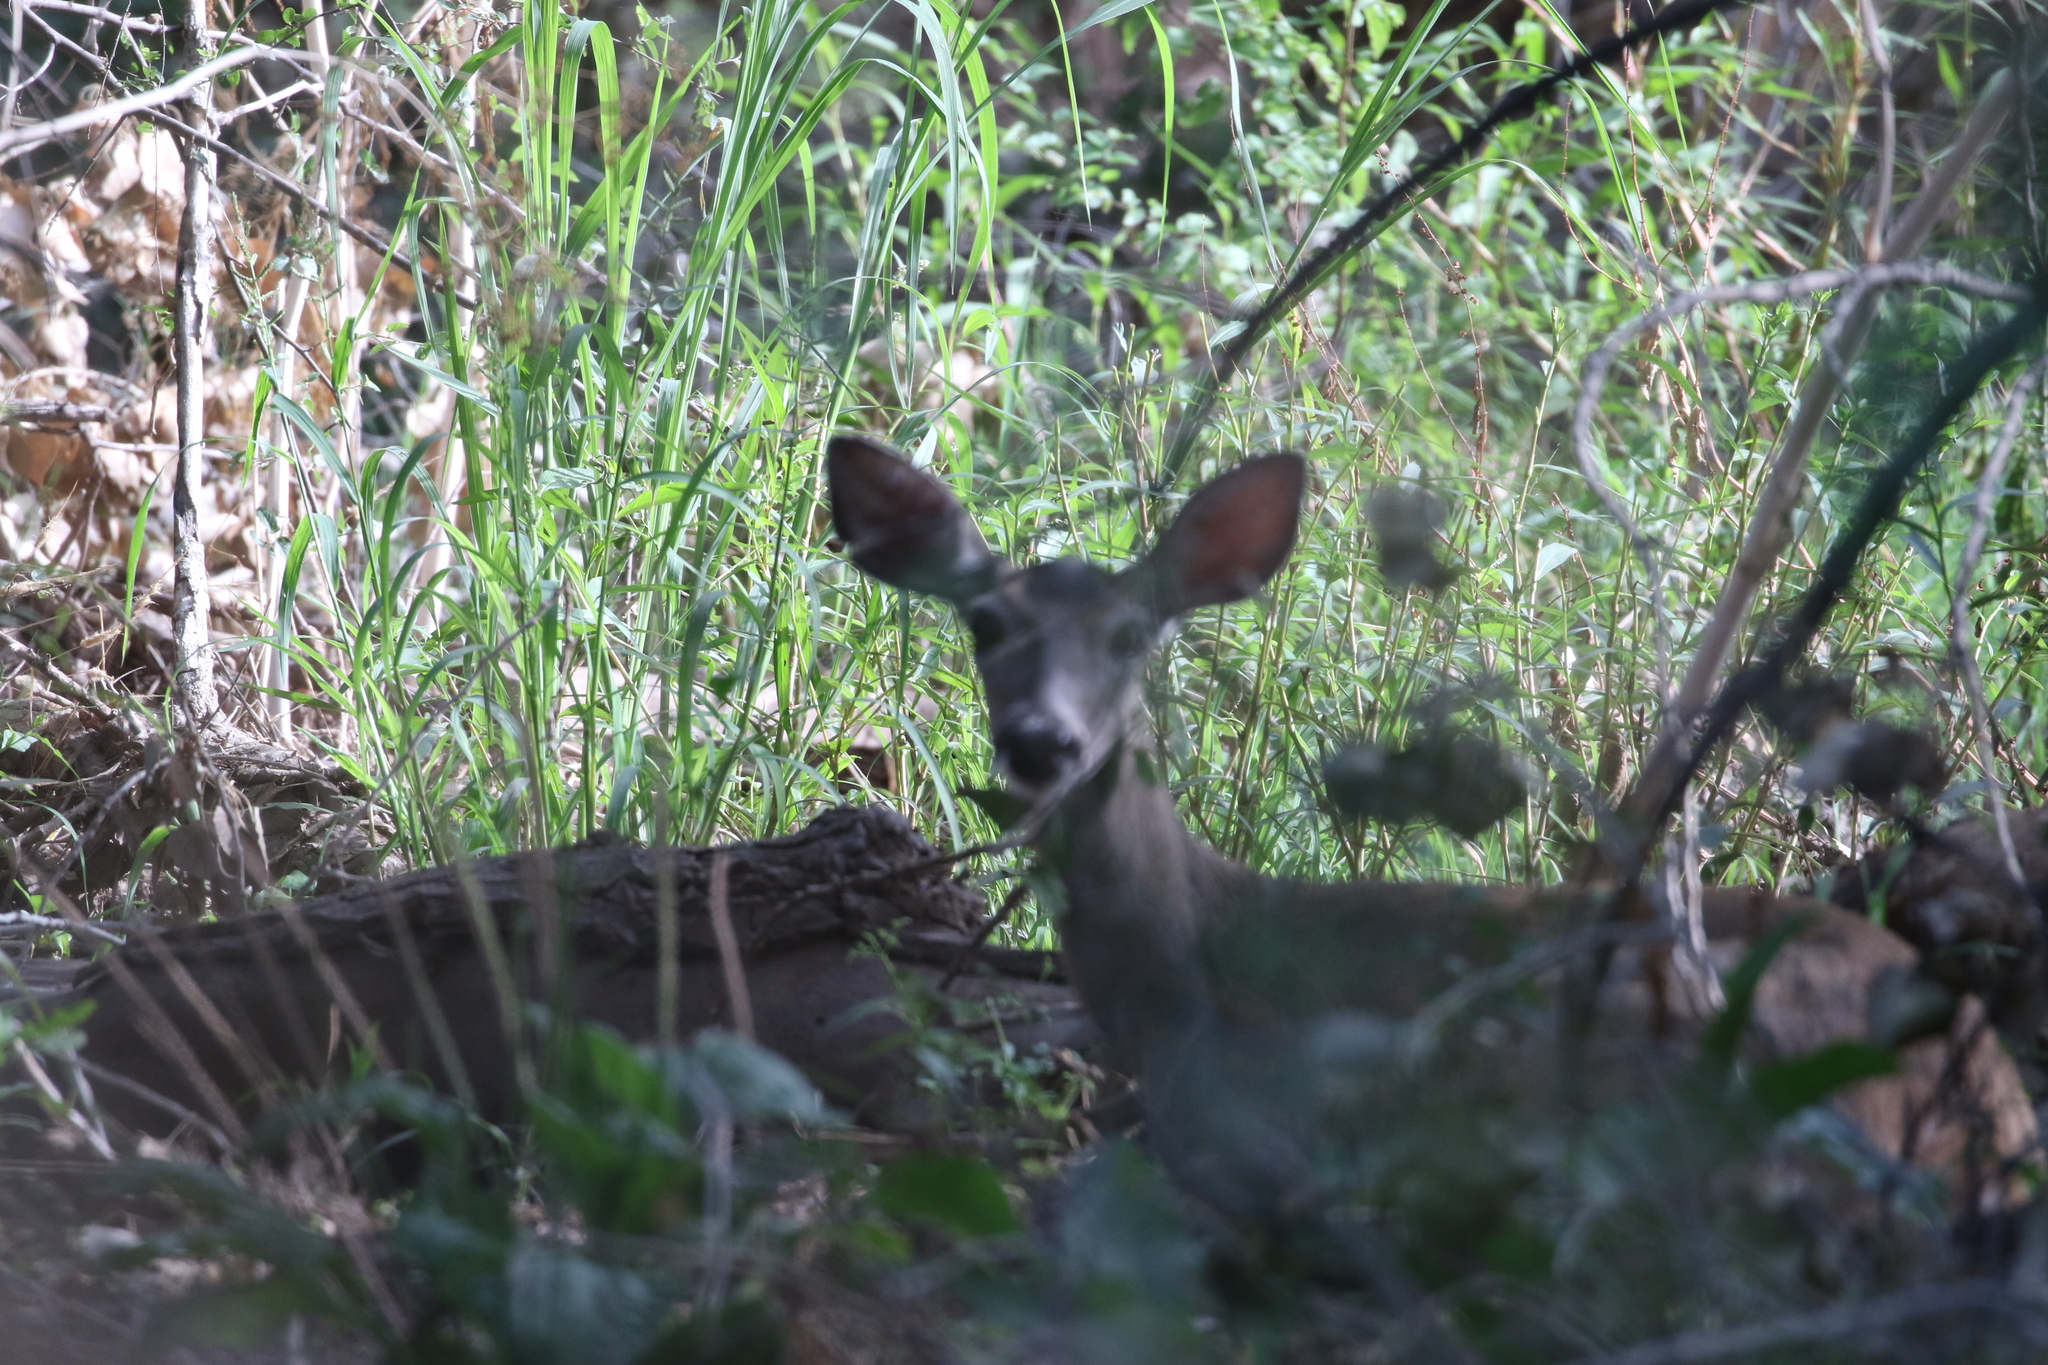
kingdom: Animalia
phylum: Chordata
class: Mammalia
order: Artiodactyla
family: Cervidae
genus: Odocoileus
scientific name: Odocoileus virginianus
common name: White-tailed deer
